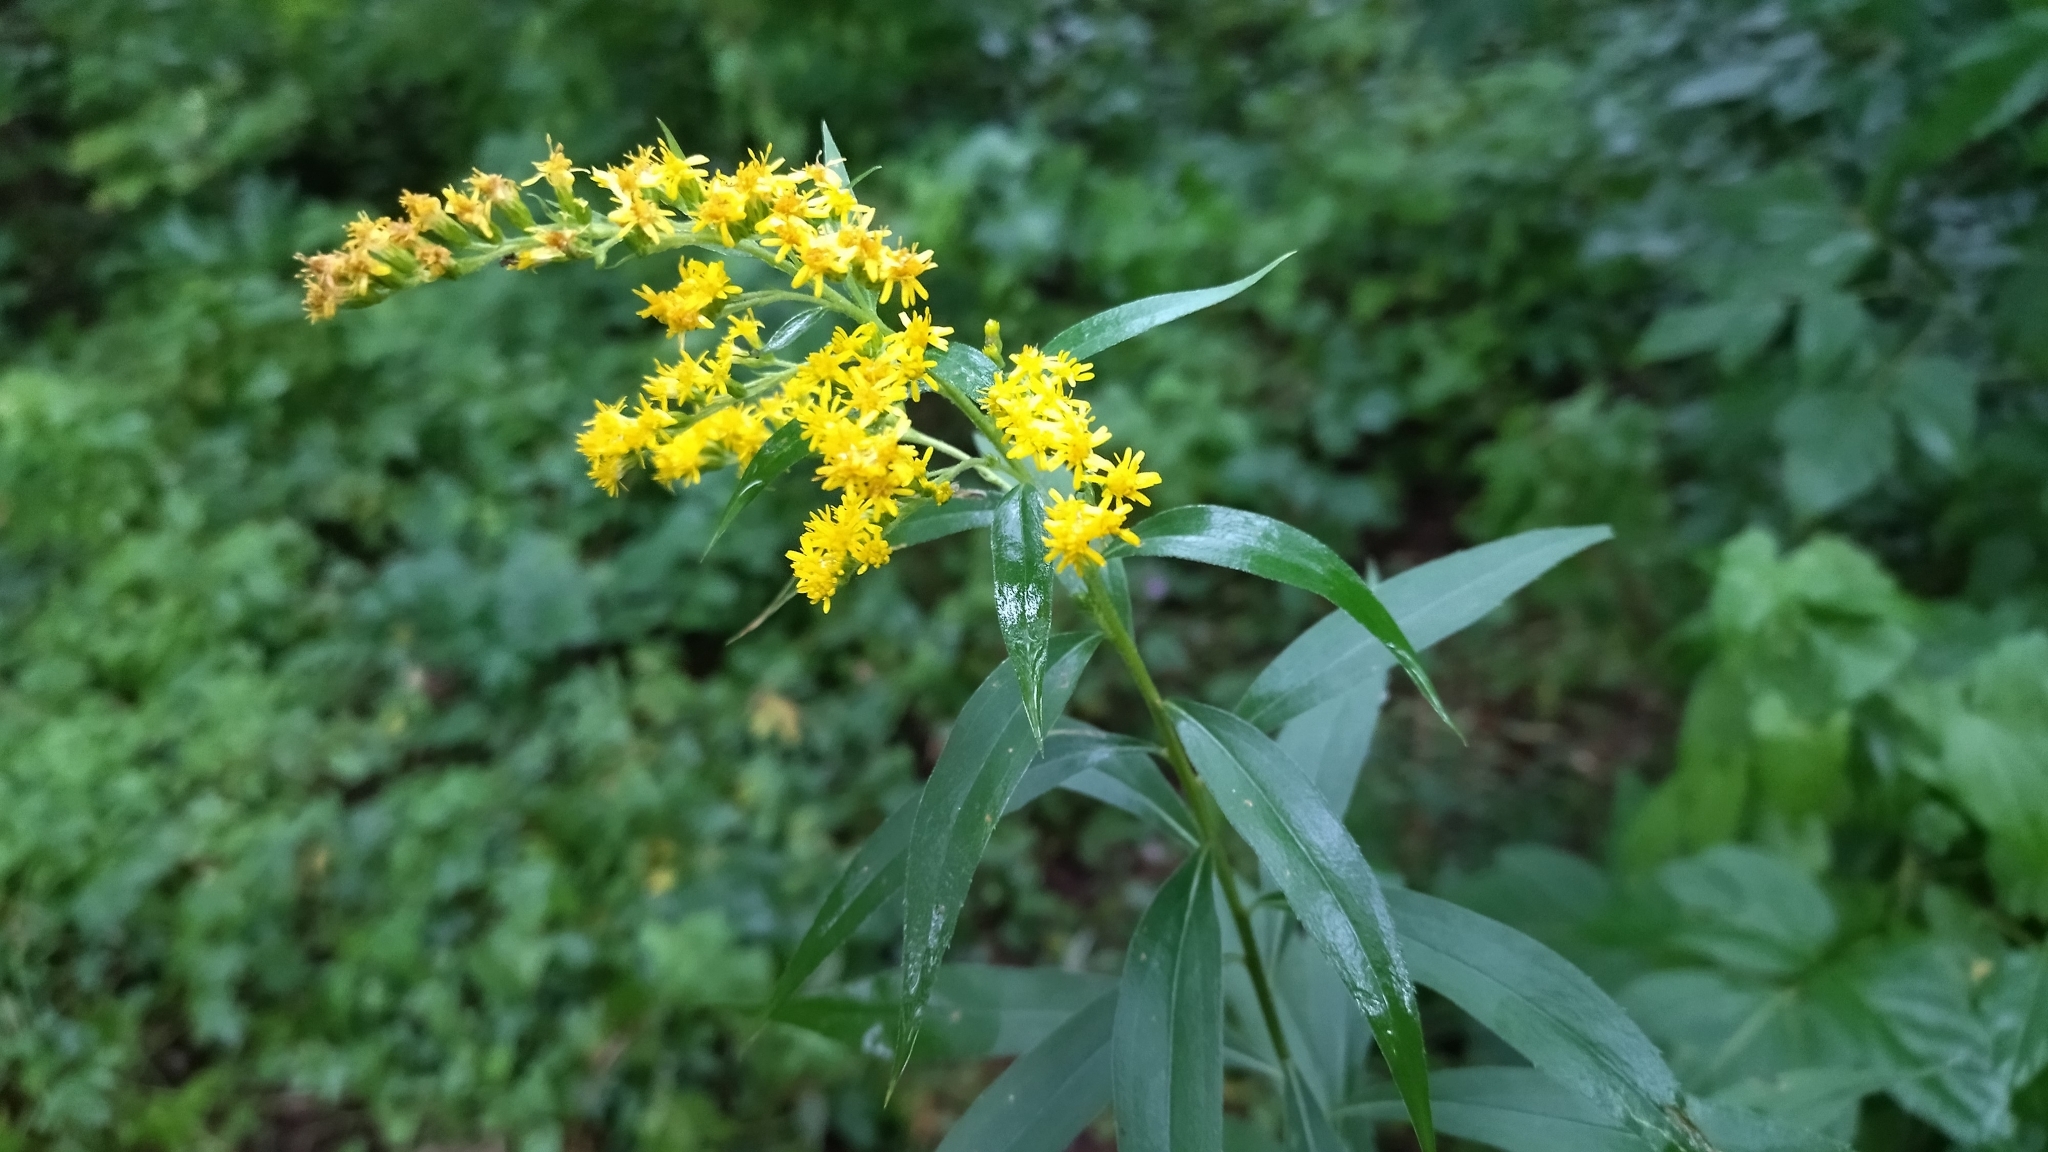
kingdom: Plantae
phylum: Tracheophyta
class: Magnoliopsida
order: Asterales
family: Asteraceae
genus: Solidago
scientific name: Solidago gigantea
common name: Giant goldenrod
